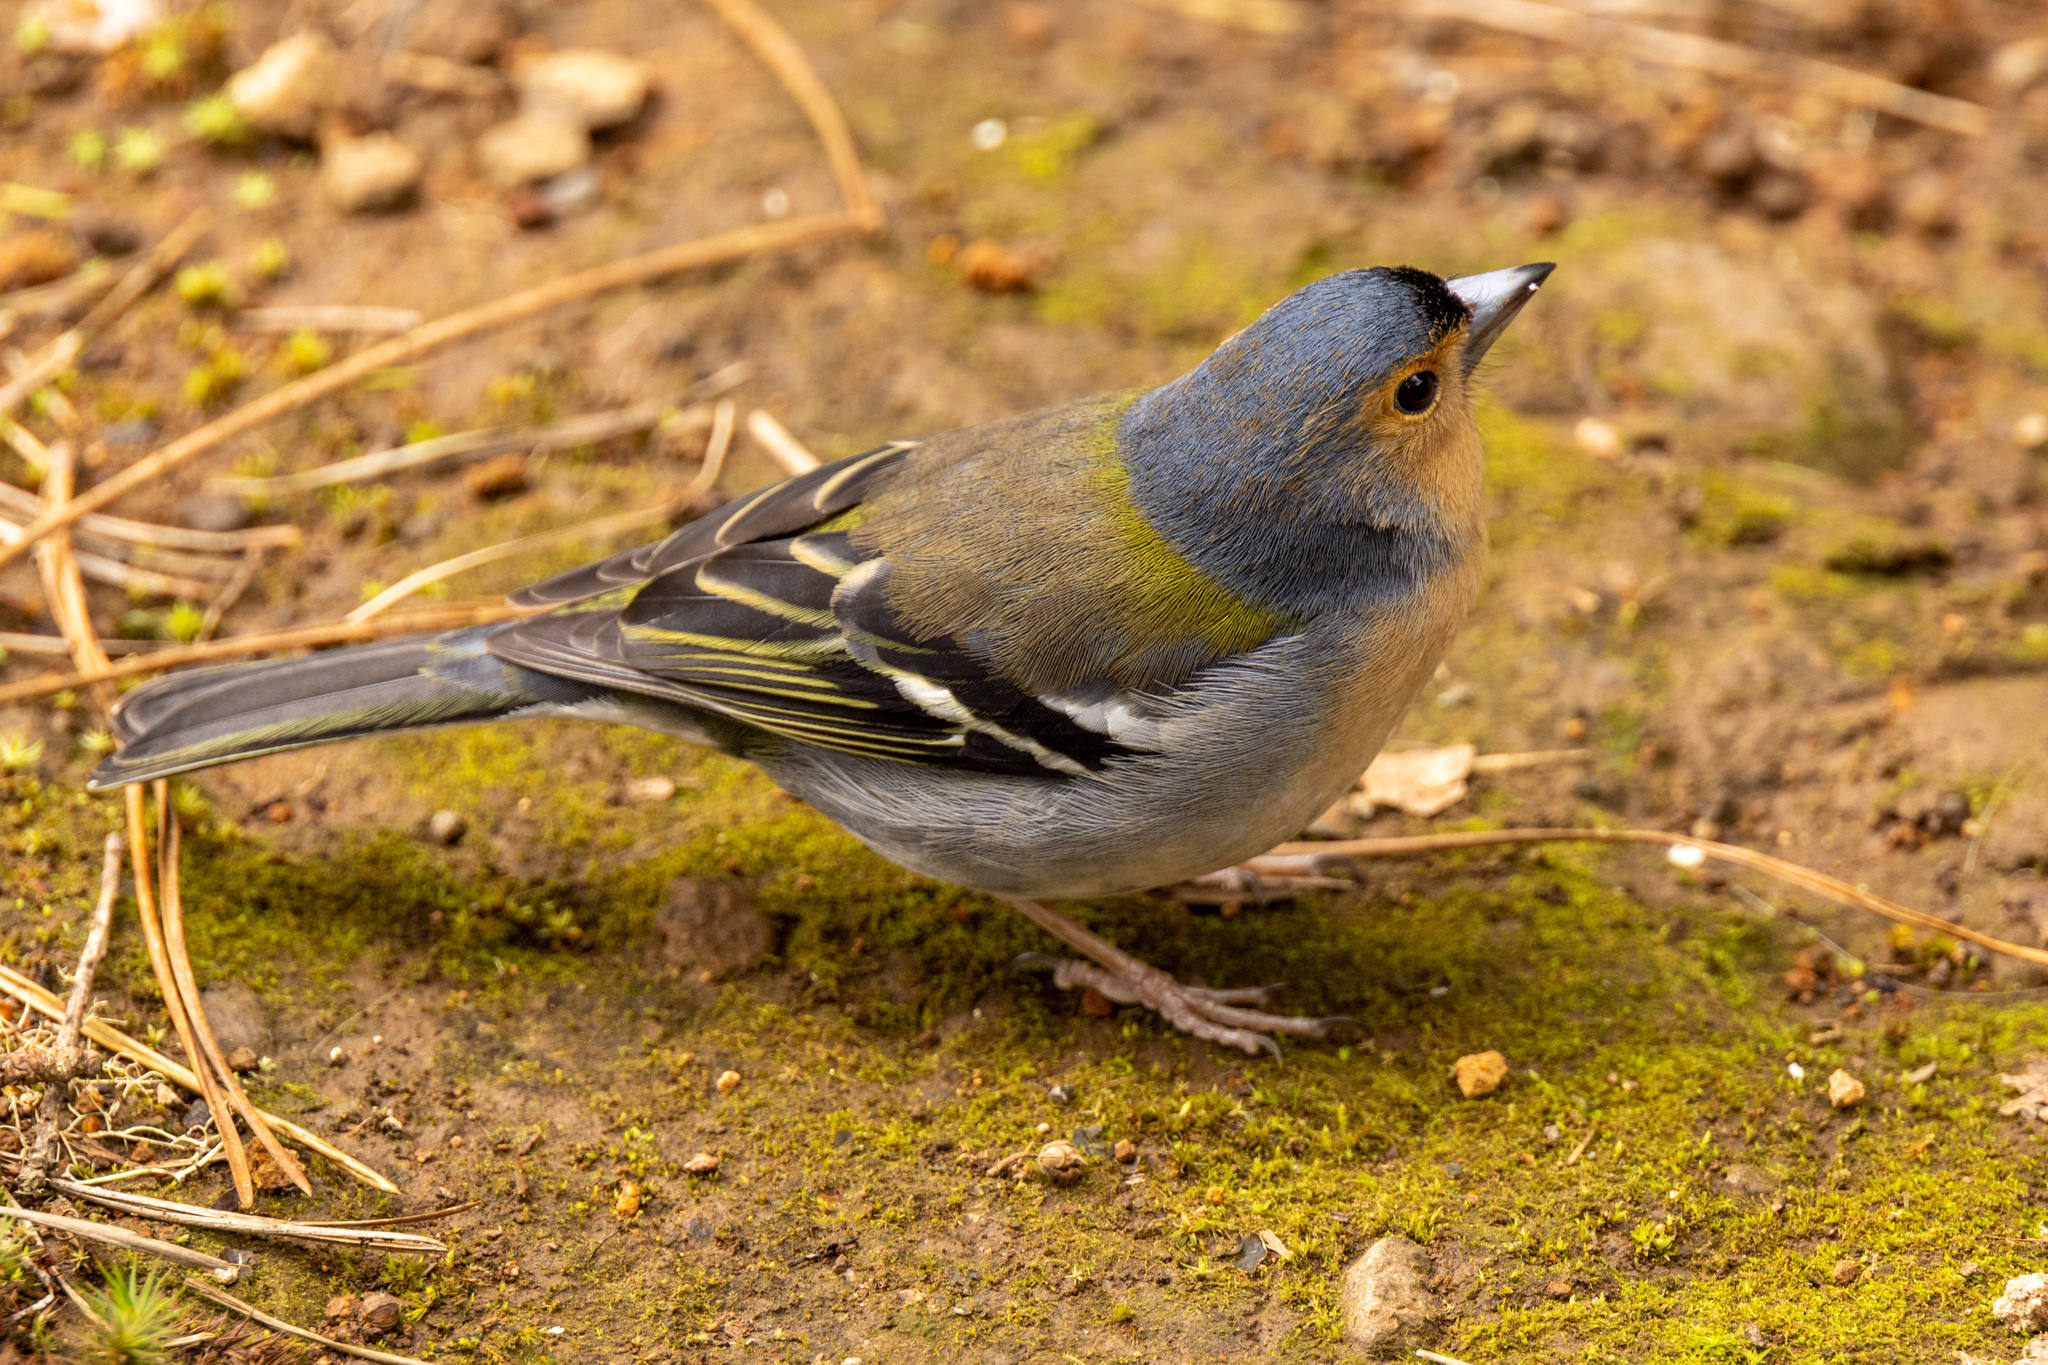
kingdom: Animalia
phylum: Chordata
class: Aves
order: Passeriformes
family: Fringillidae
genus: Fringilla
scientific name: Fringilla maderensis
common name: Madeira chaffinch
